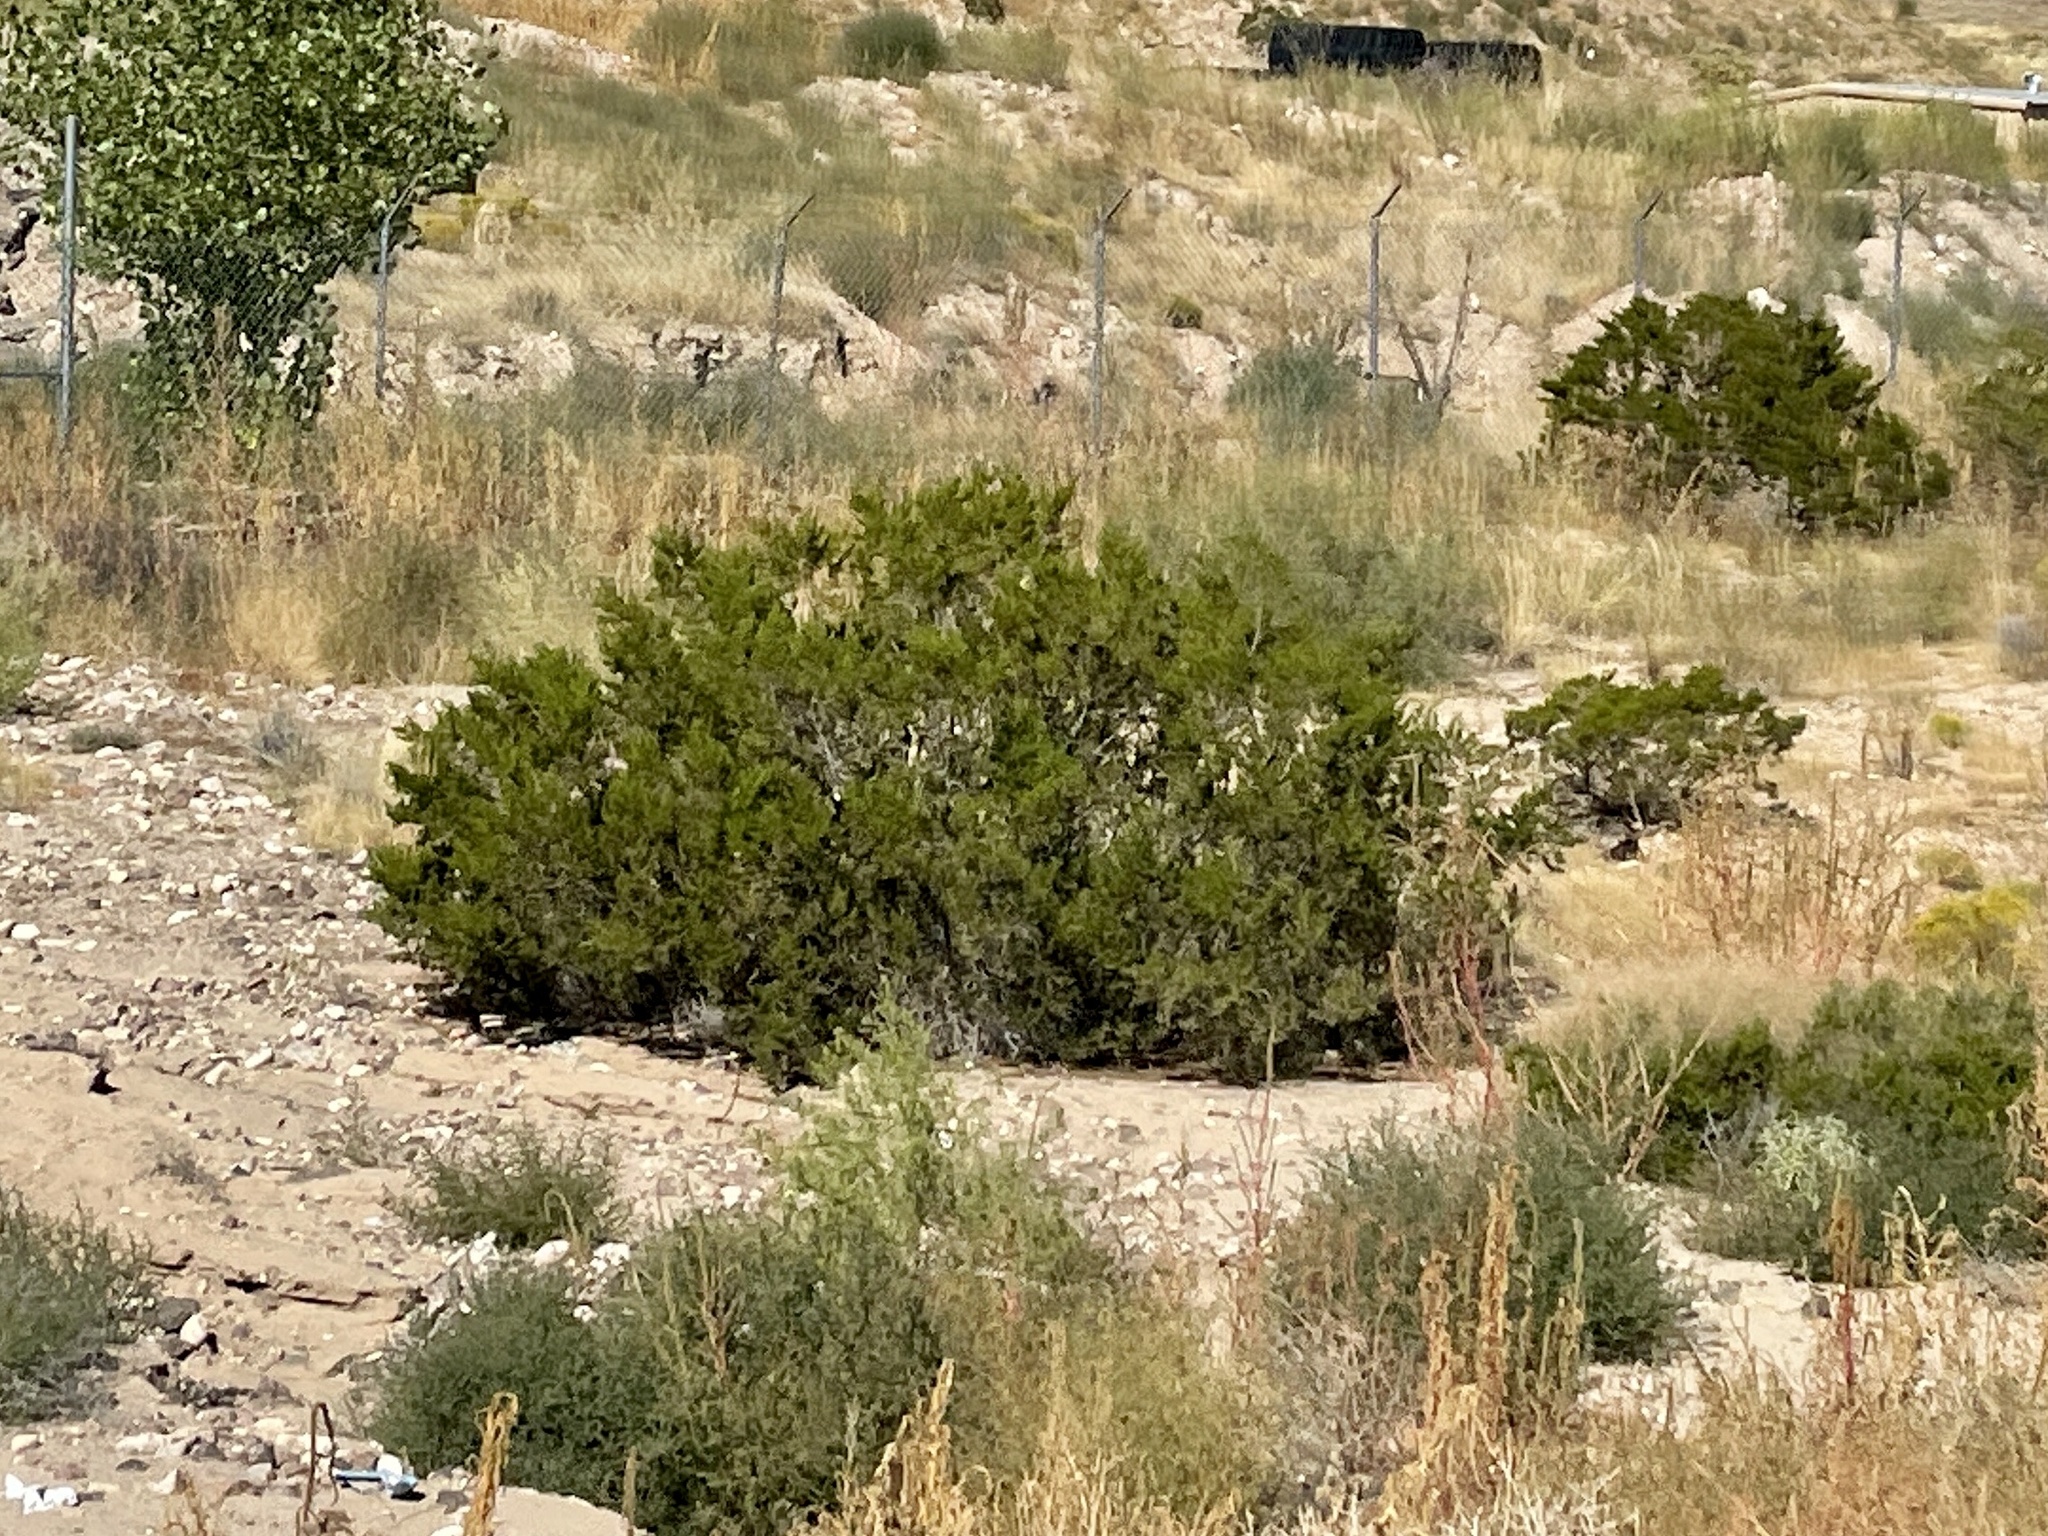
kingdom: Plantae
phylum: Tracheophyta
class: Magnoliopsida
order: Zygophyllales
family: Zygophyllaceae
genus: Larrea
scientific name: Larrea tridentata
